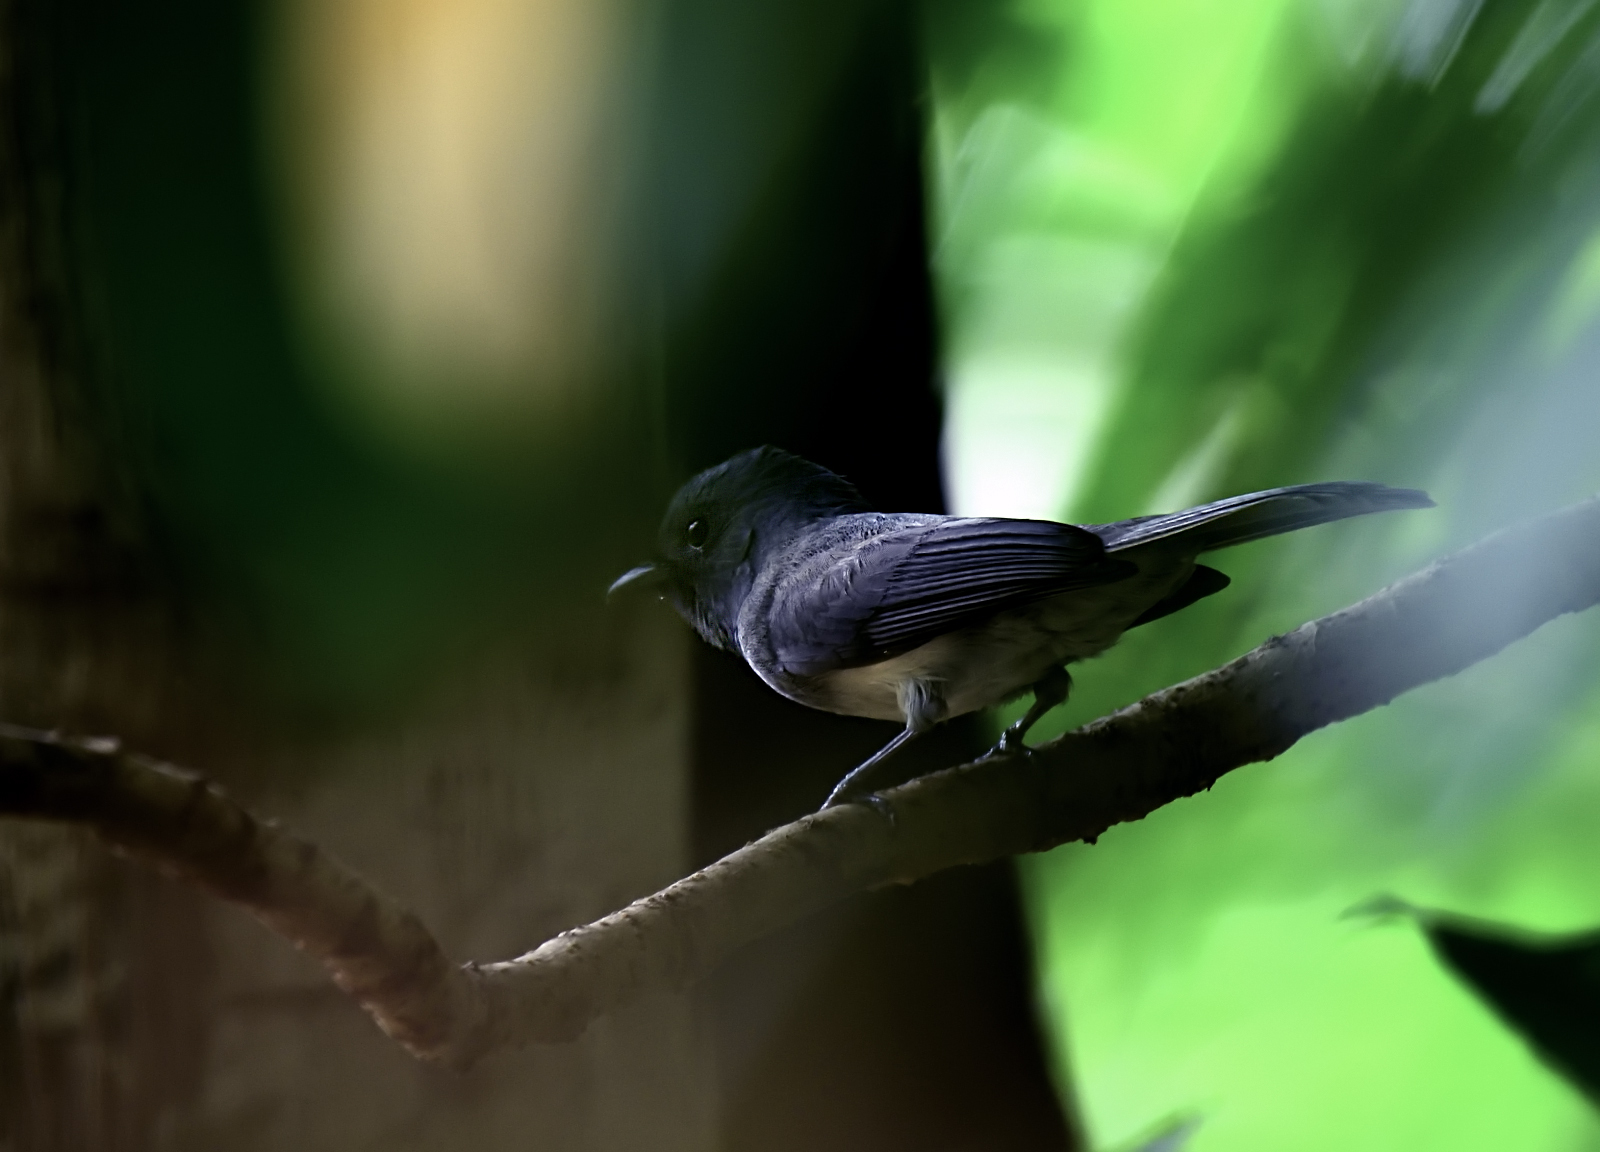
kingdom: Animalia
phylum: Chordata
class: Aves
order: Passeriformes
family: Monarchidae
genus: Hypothymis
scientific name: Hypothymis azurea
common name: Black-naped monarch
